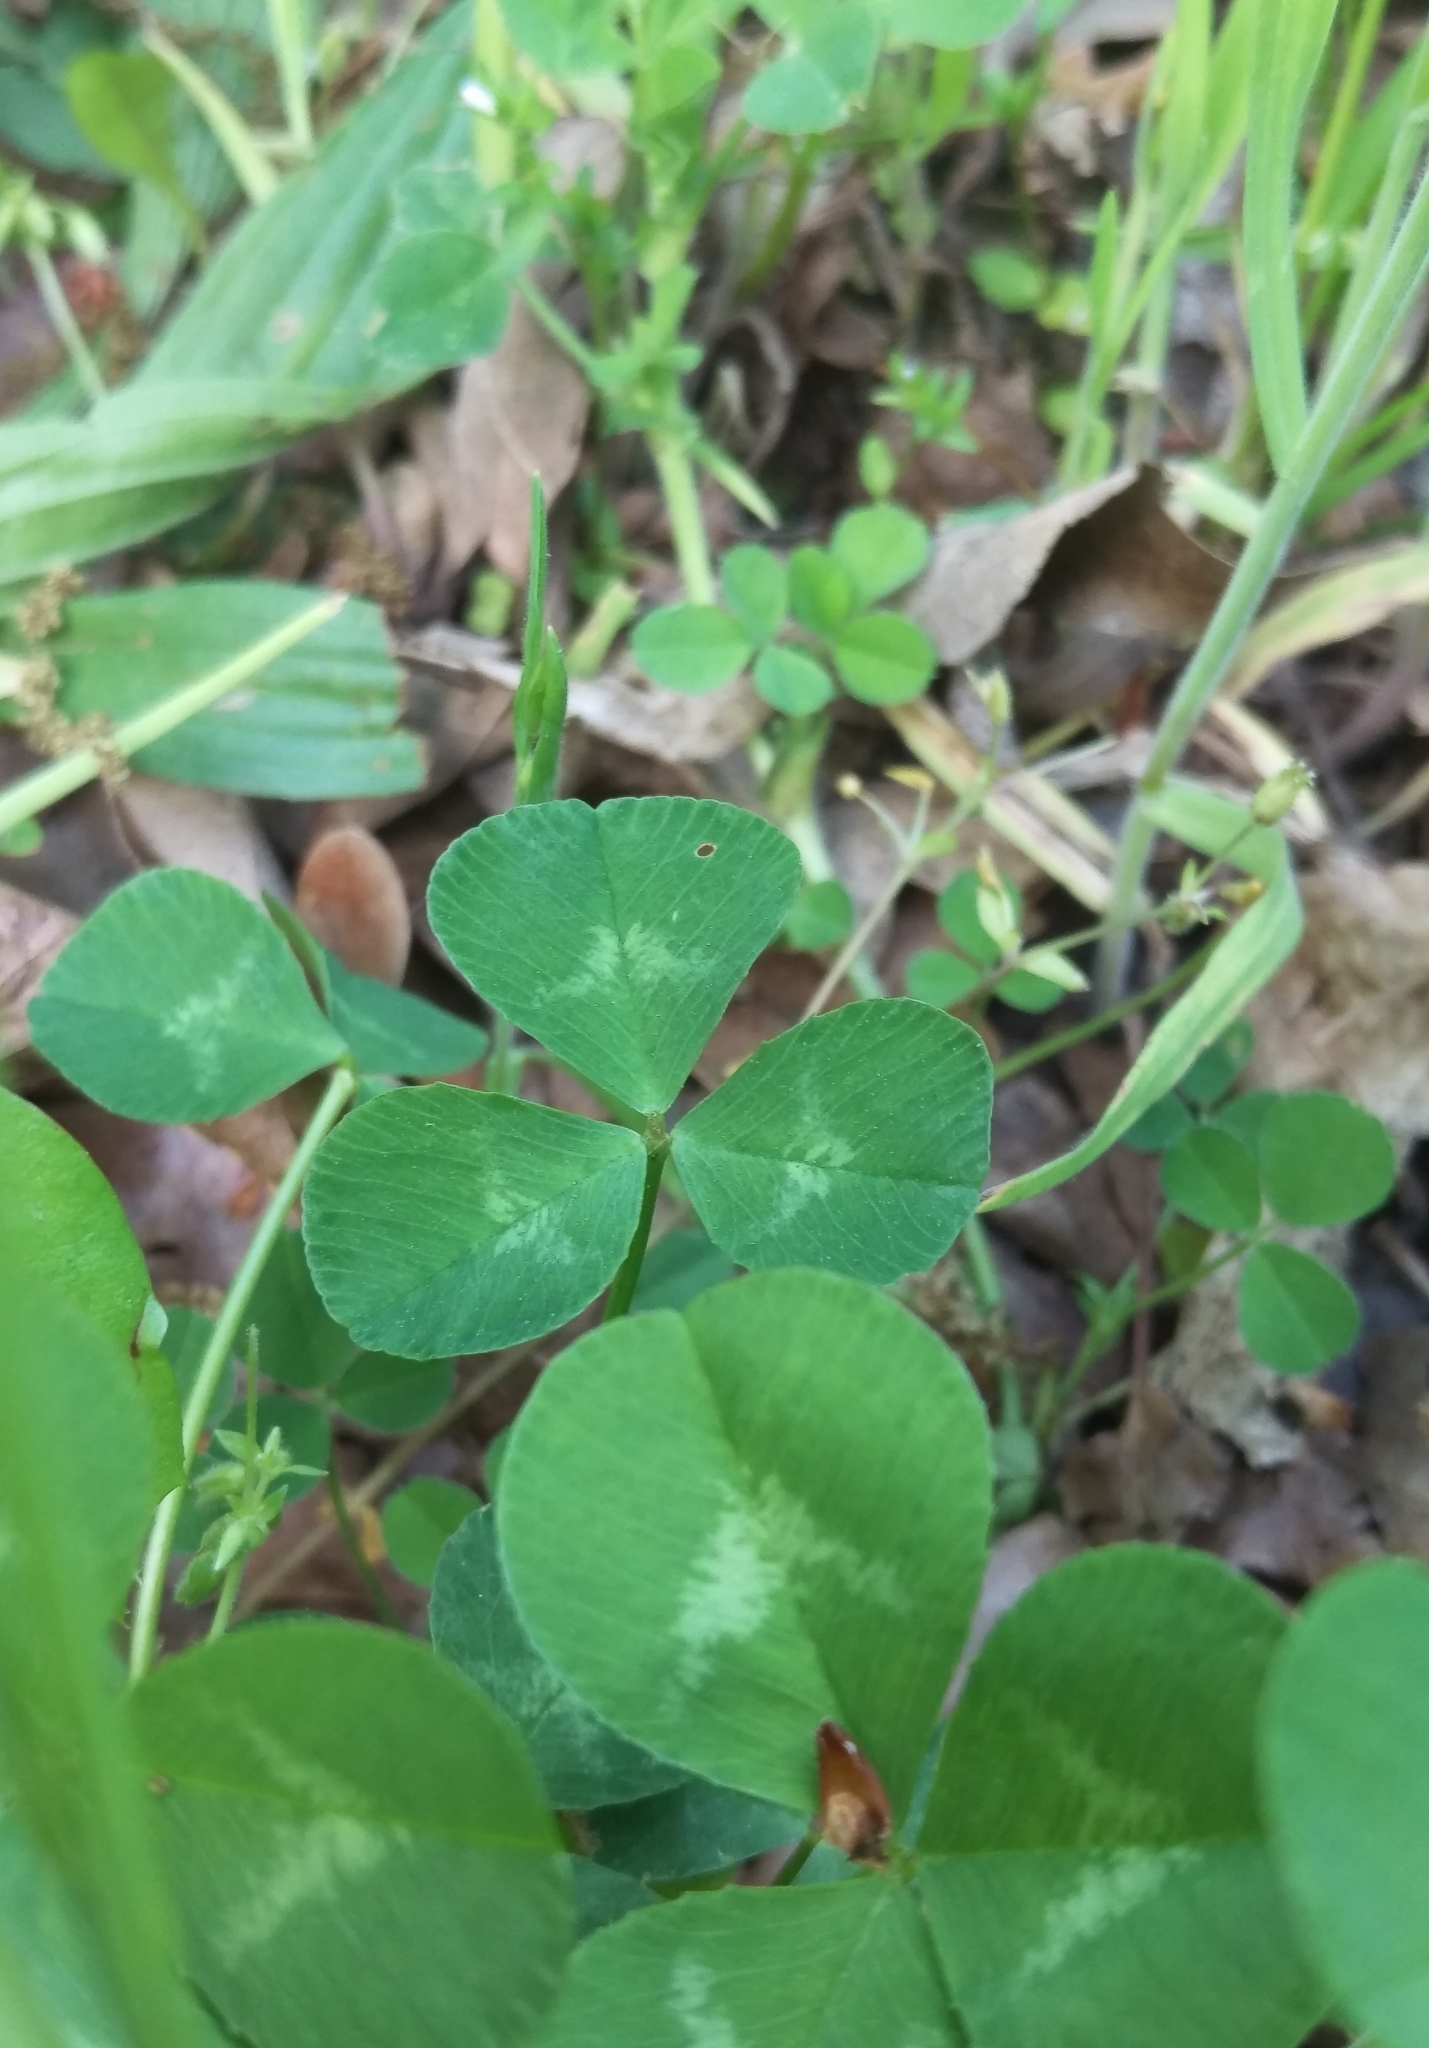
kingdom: Plantae
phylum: Tracheophyta
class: Magnoliopsida
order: Fabales
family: Fabaceae
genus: Trifolium
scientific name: Trifolium repens
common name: White clover
